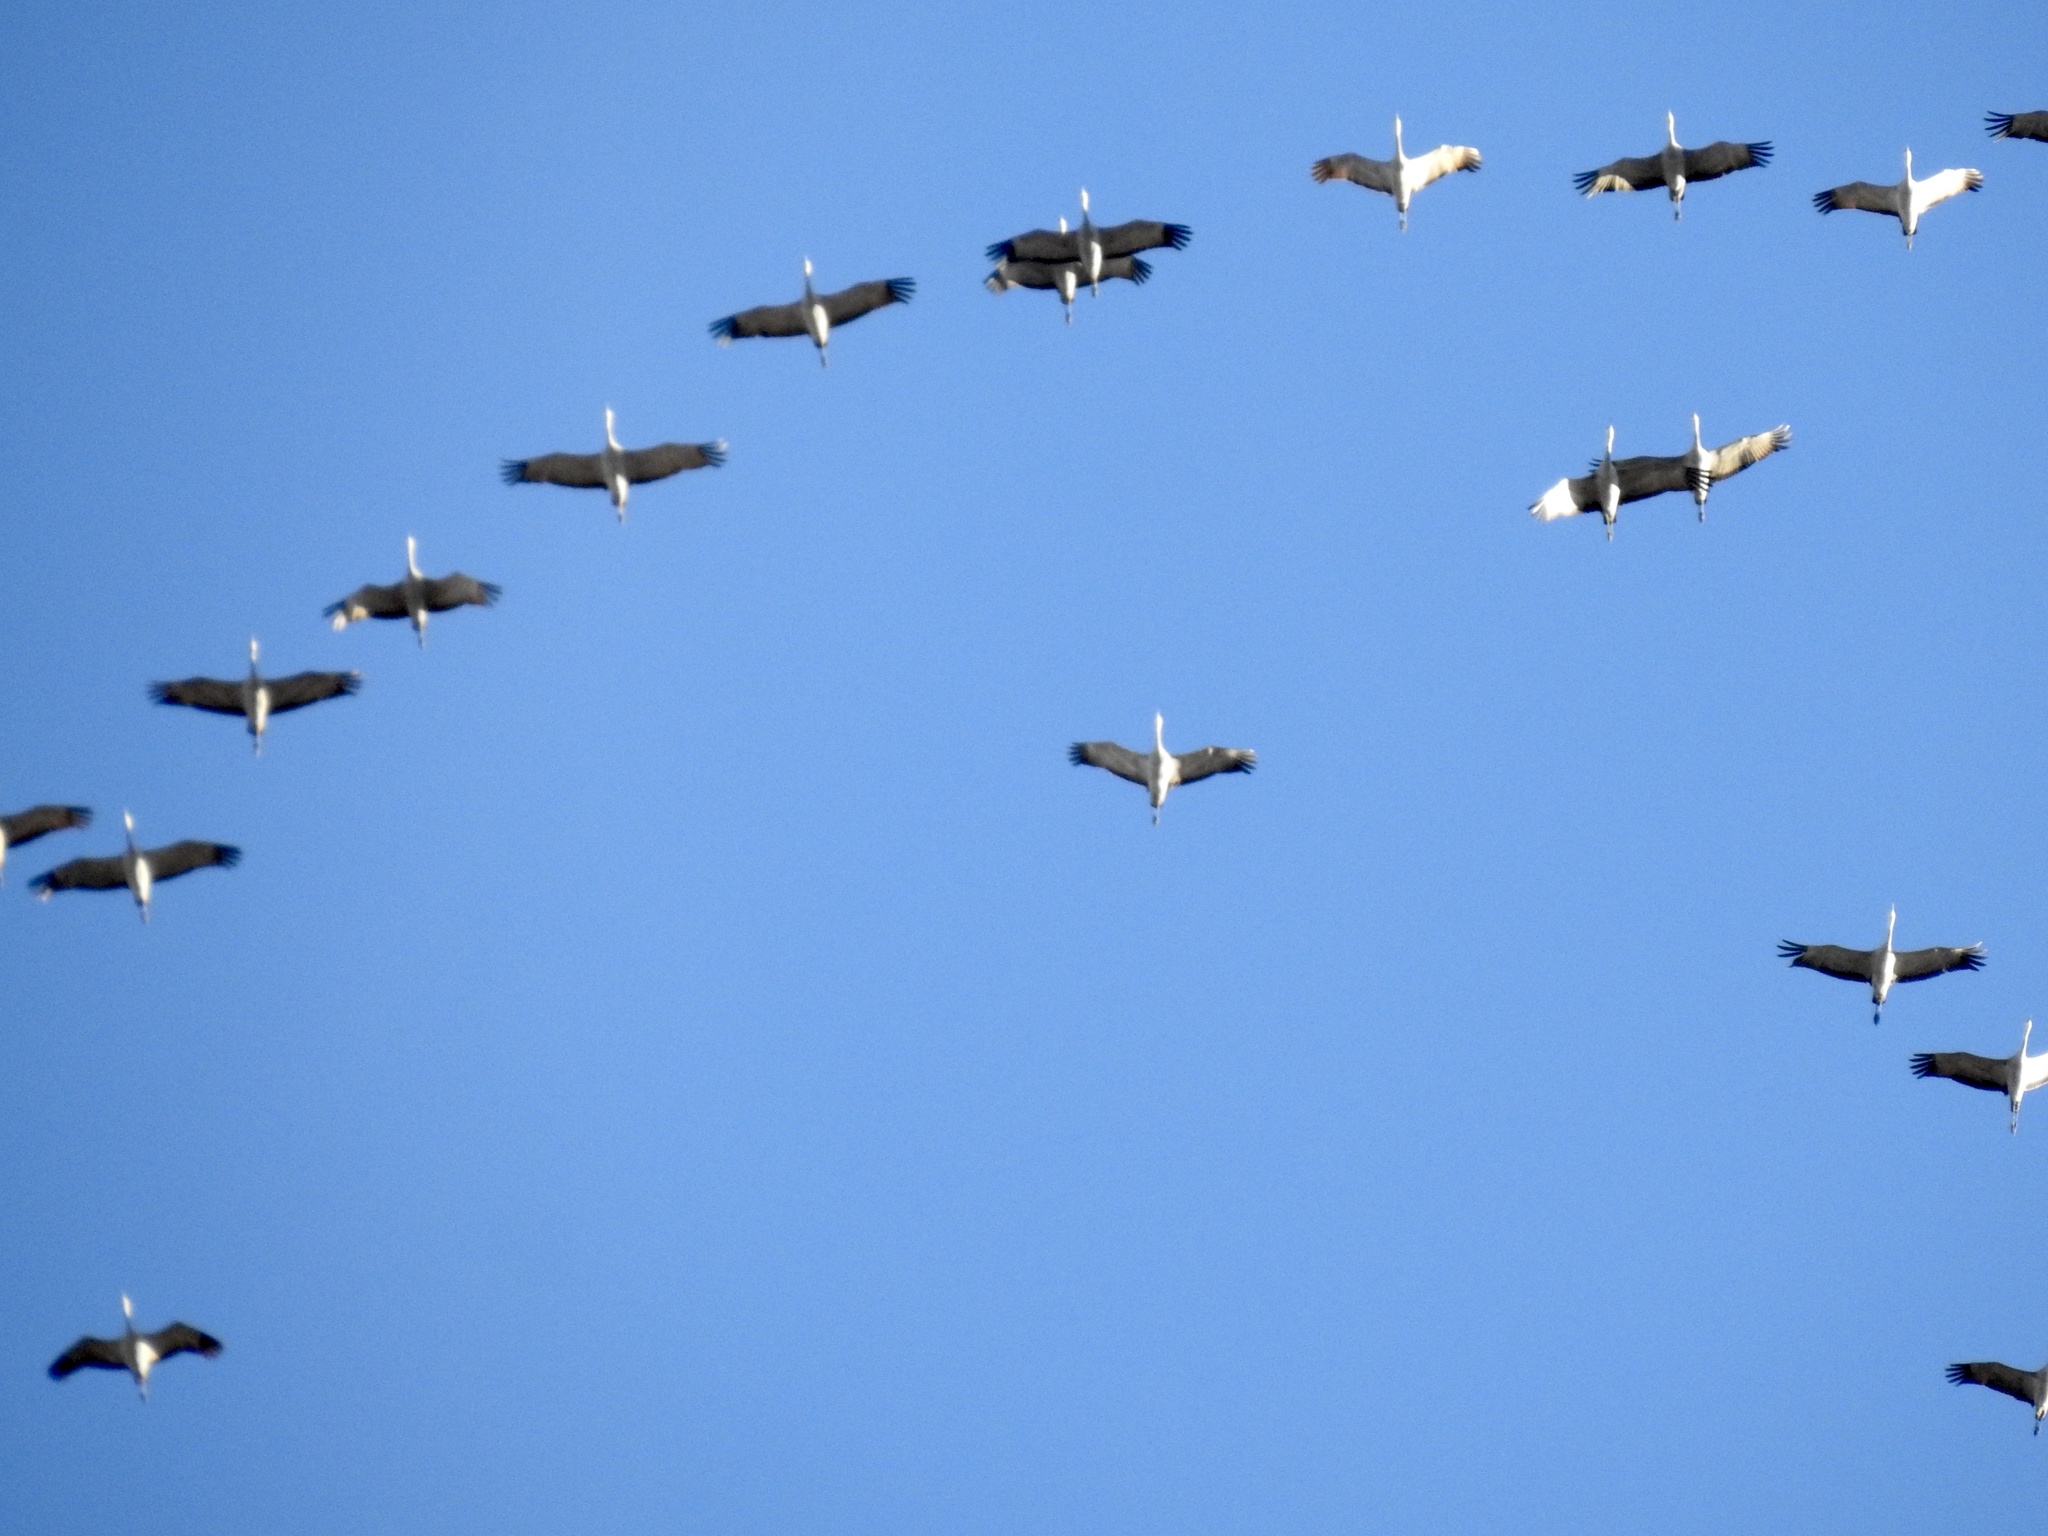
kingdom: Animalia
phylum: Chordata
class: Aves
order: Gruiformes
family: Gruidae
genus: Grus
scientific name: Grus canadensis
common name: Sandhill crane
